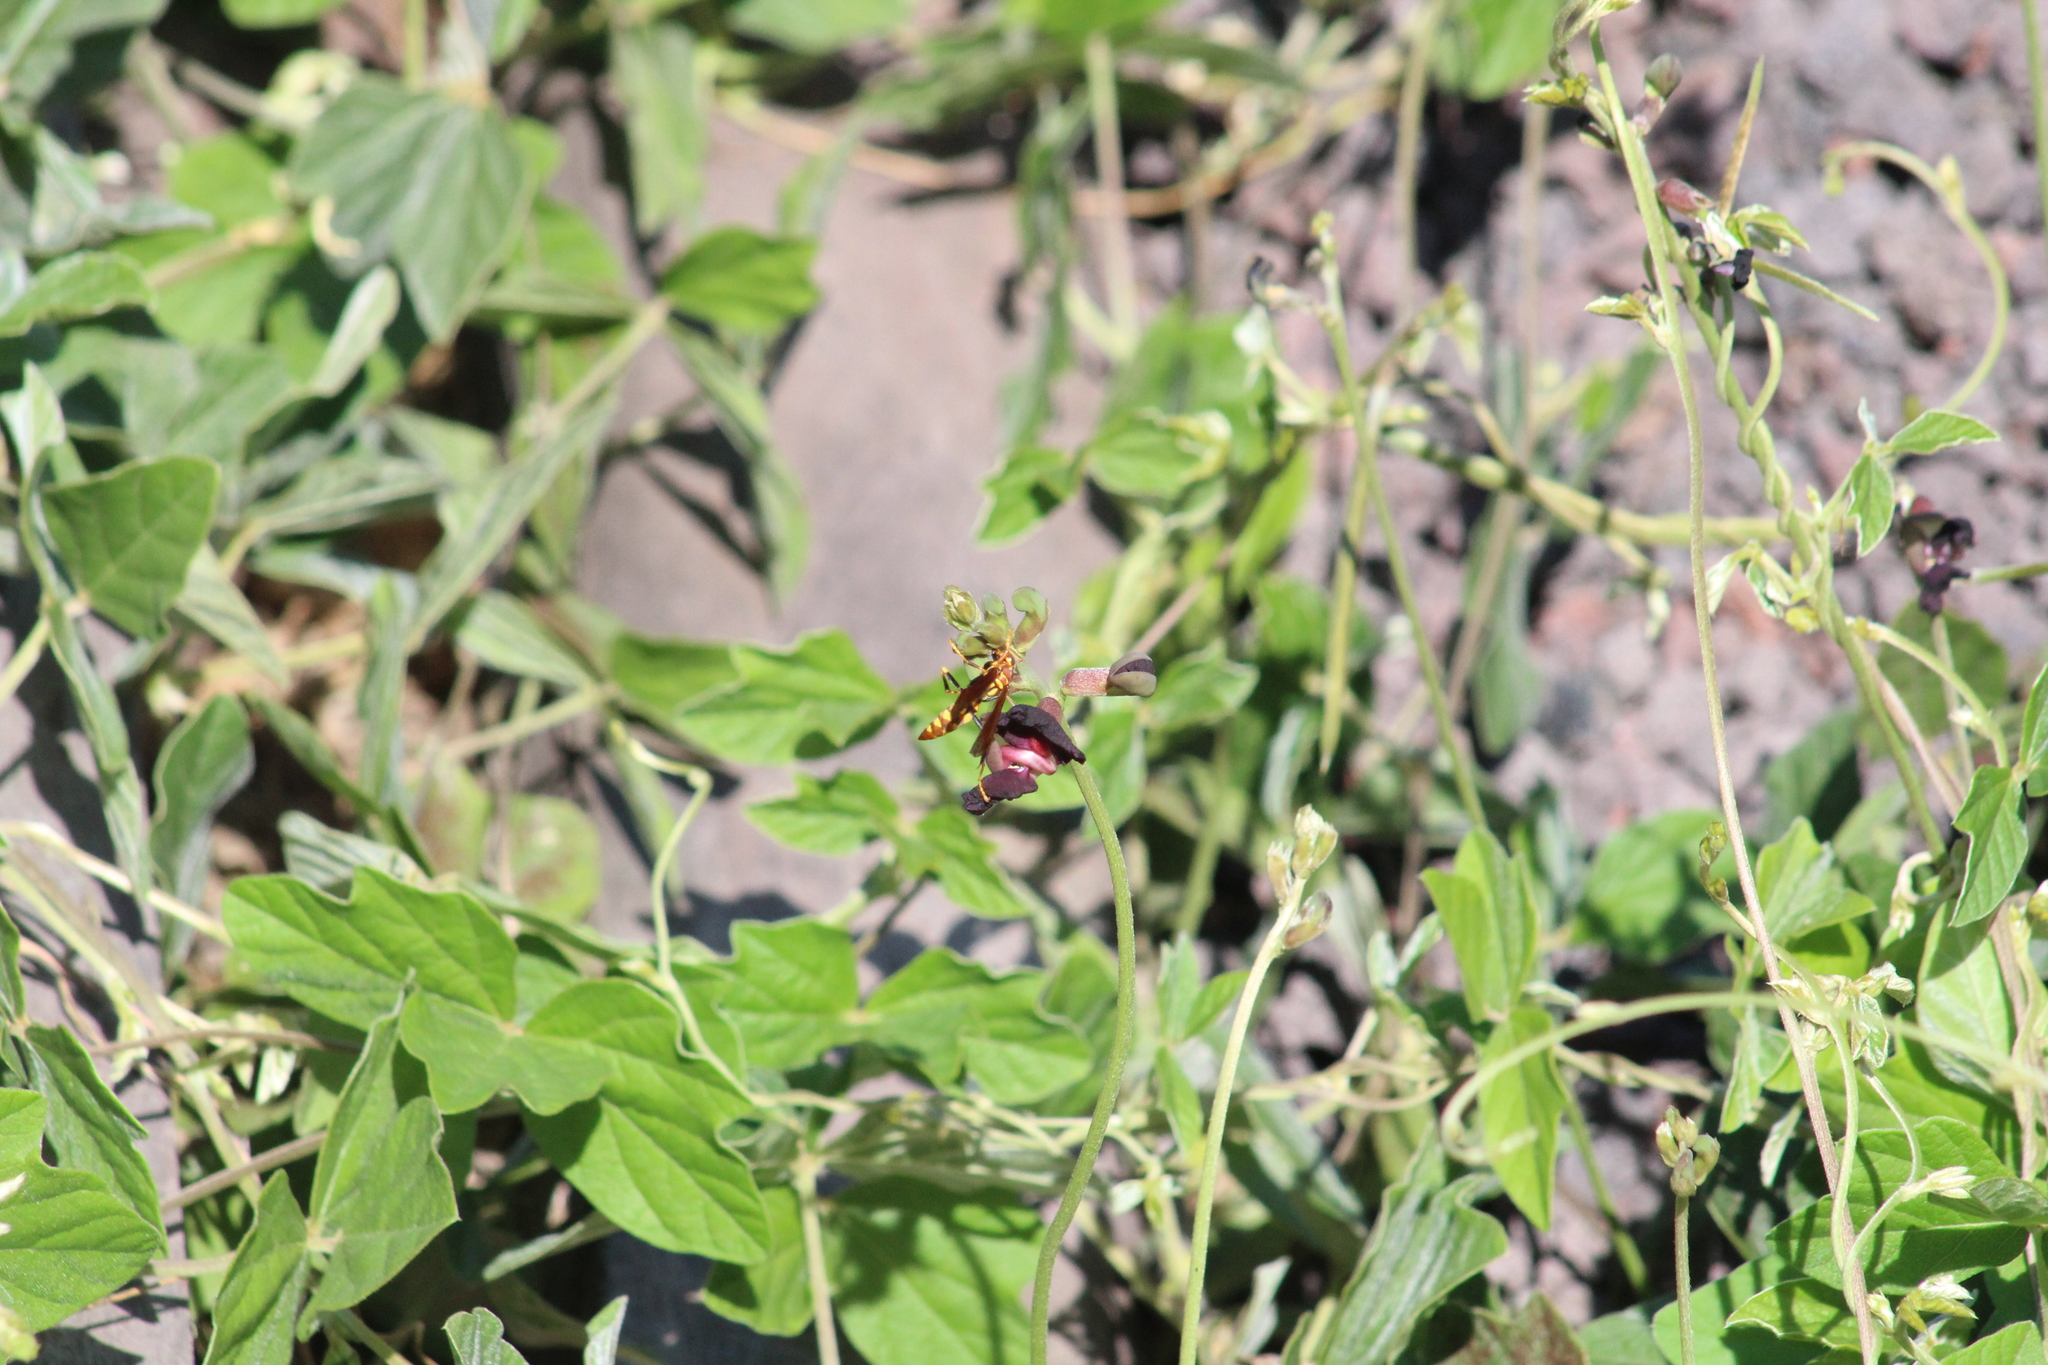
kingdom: Animalia
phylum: Arthropoda
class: Insecta
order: Hymenoptera
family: Eumenidae
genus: Polistes
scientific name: Polistes versicolor
